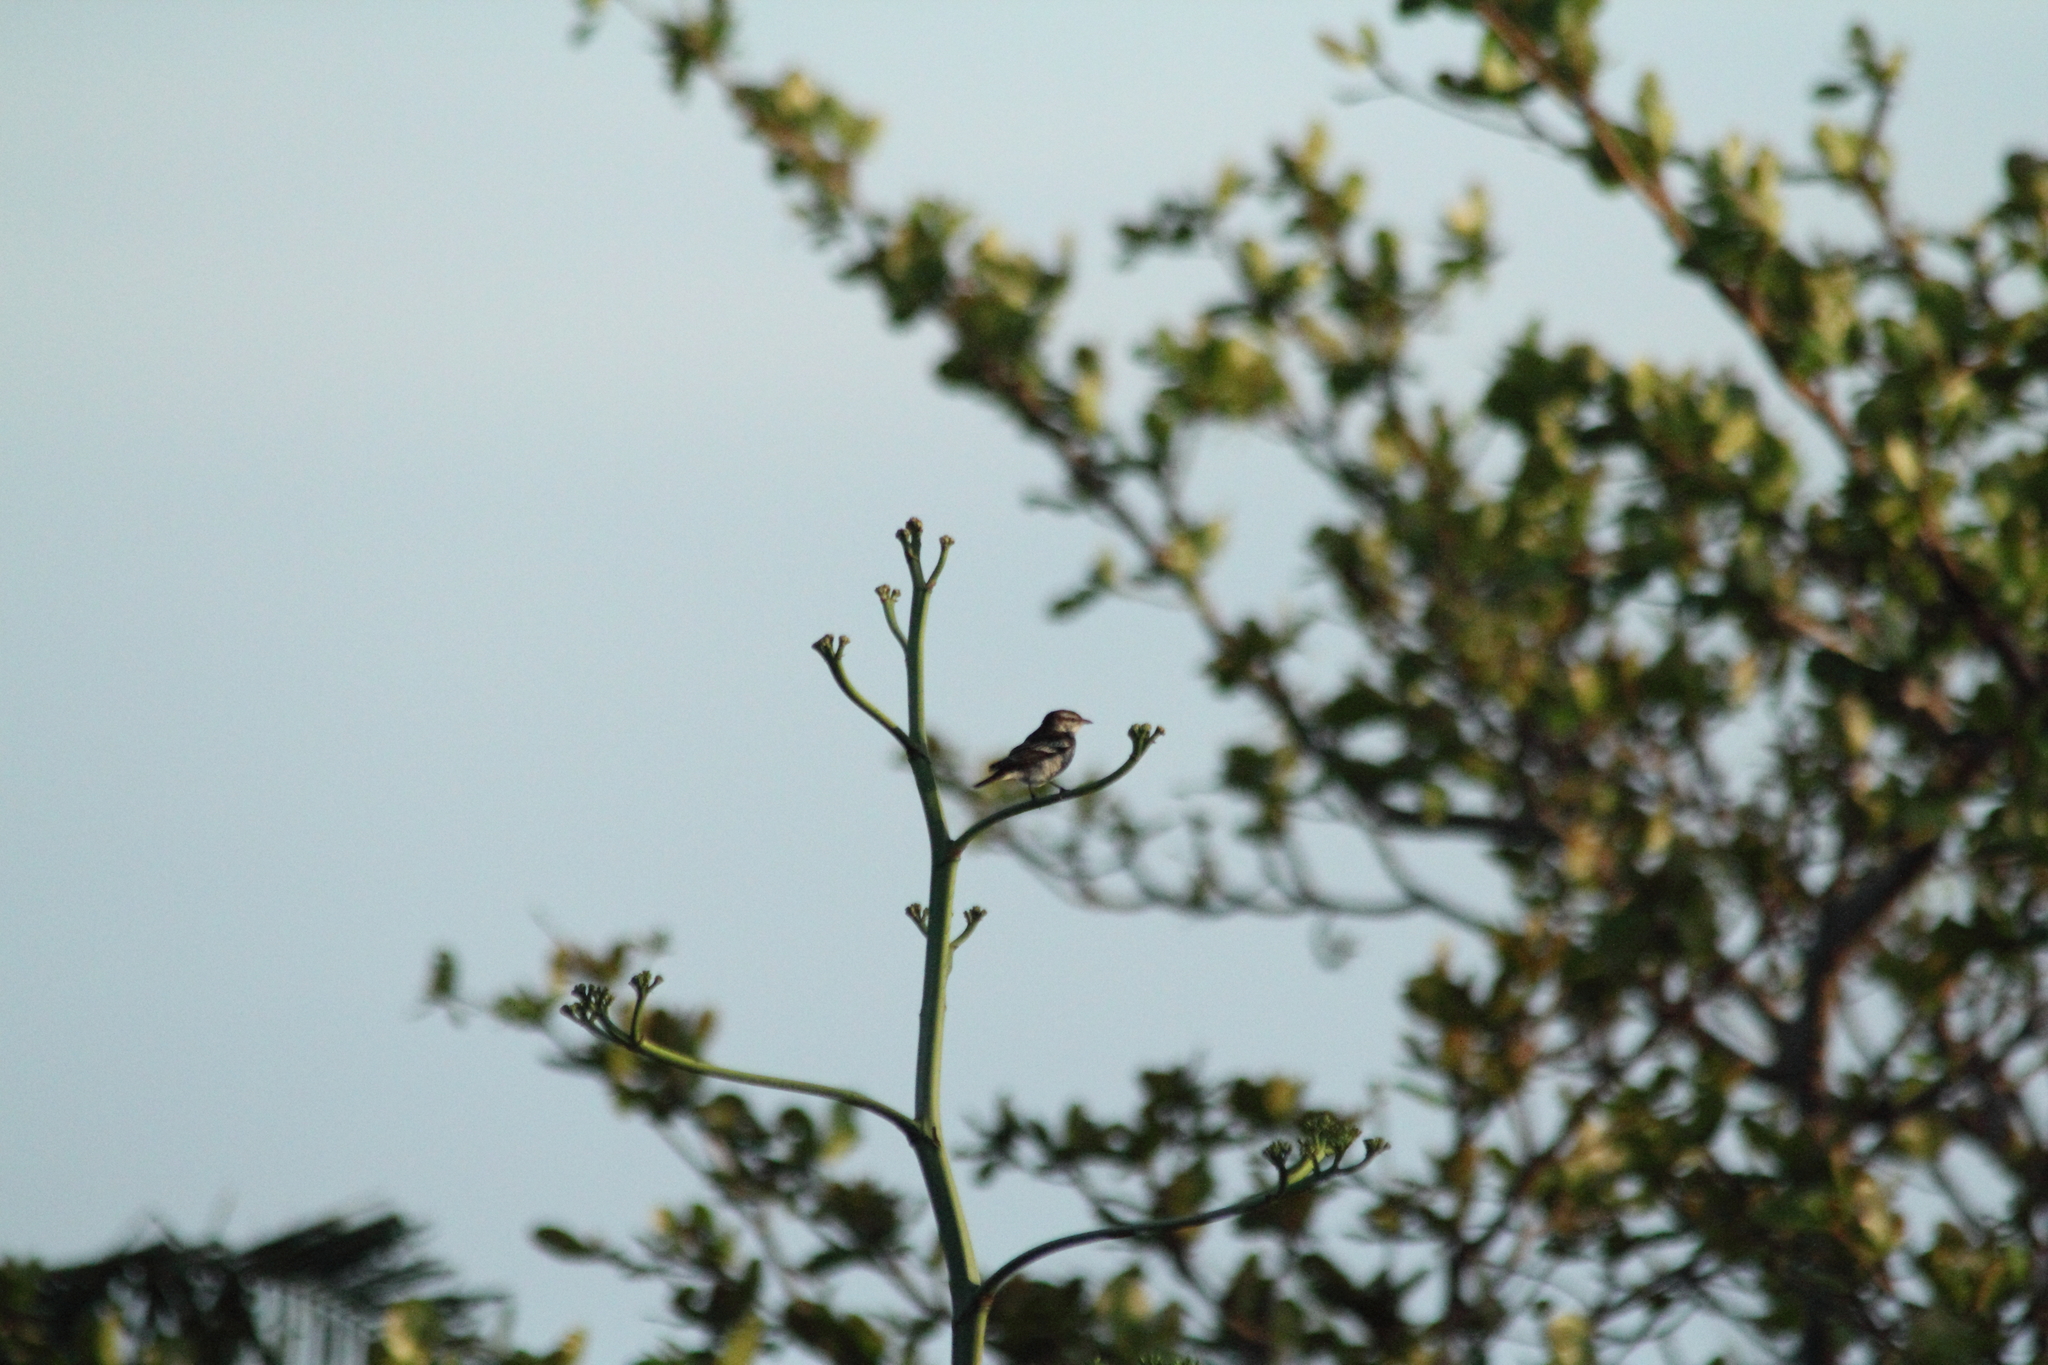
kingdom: Animalia
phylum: Chordata
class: Aves
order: Passeriformes
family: Campephagidae
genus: Lalage
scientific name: Lalage maculosa
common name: Polynesian triller
